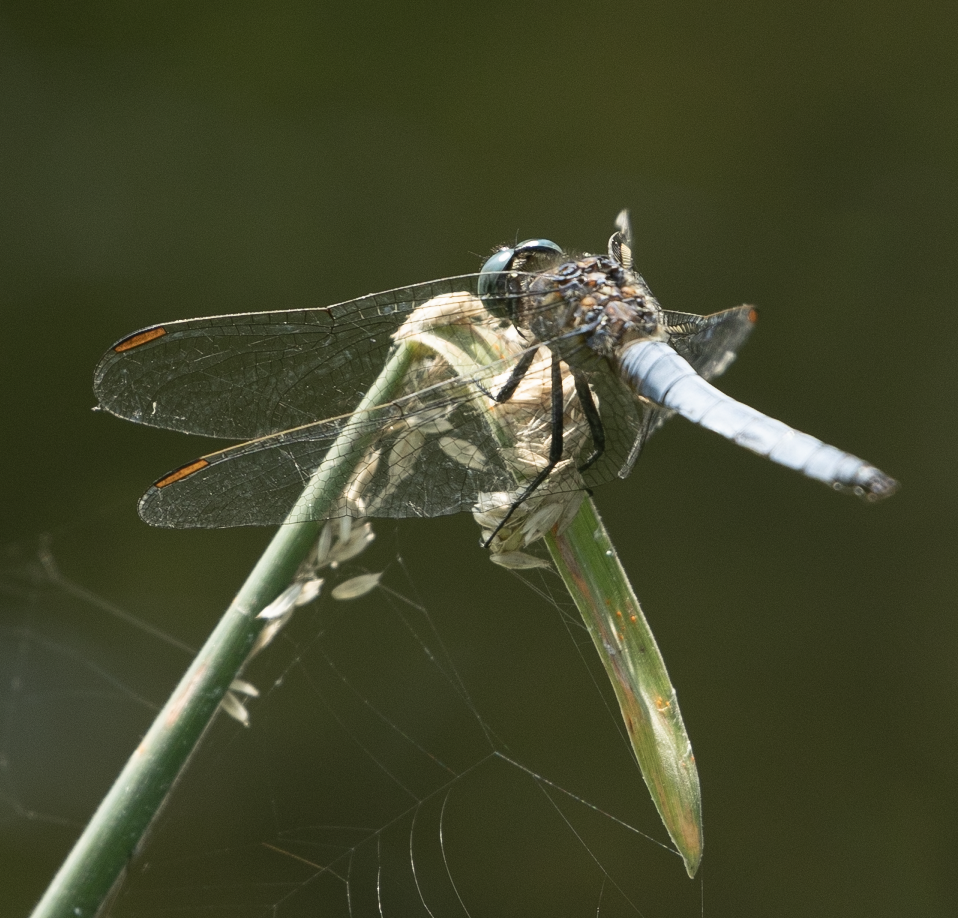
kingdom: Animalia
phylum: Arthropoda
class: Insecta
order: Odonata
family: Libellulidae
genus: Orthetrum
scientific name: Orthetrum coerulescens
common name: Keeled skimmer
